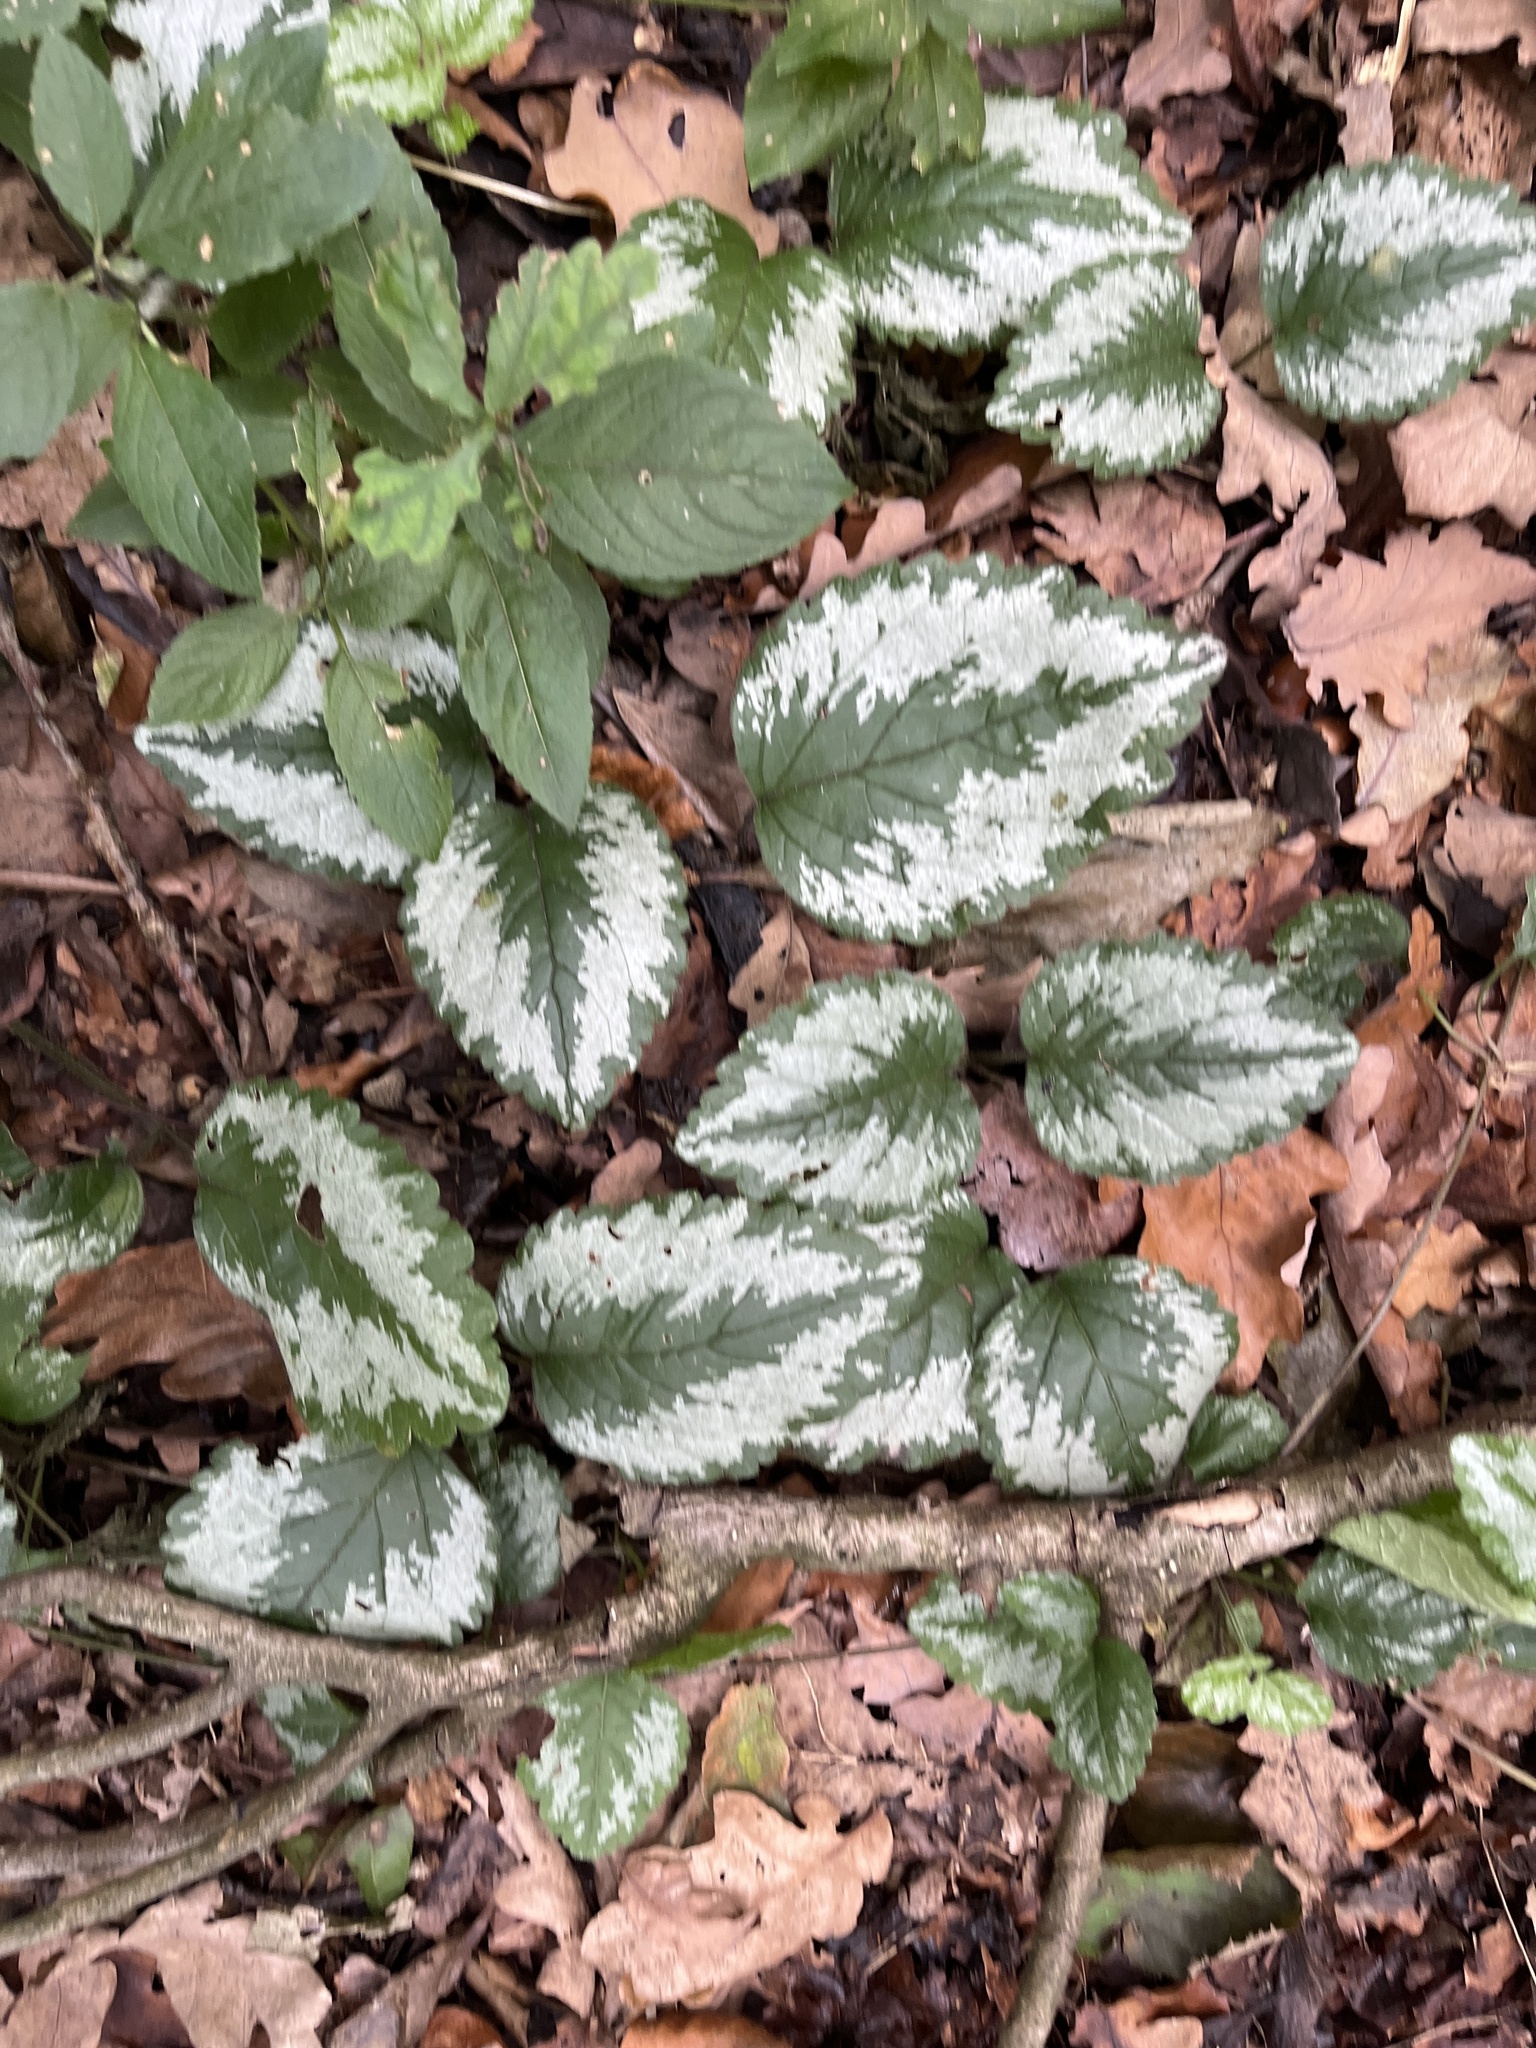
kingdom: Plantae
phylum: Tracheophyta
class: Magnoliopsida
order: Lamiales
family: Lamiaceae
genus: Lamium
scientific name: Lamium galeobdolon
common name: Yellow archangel
